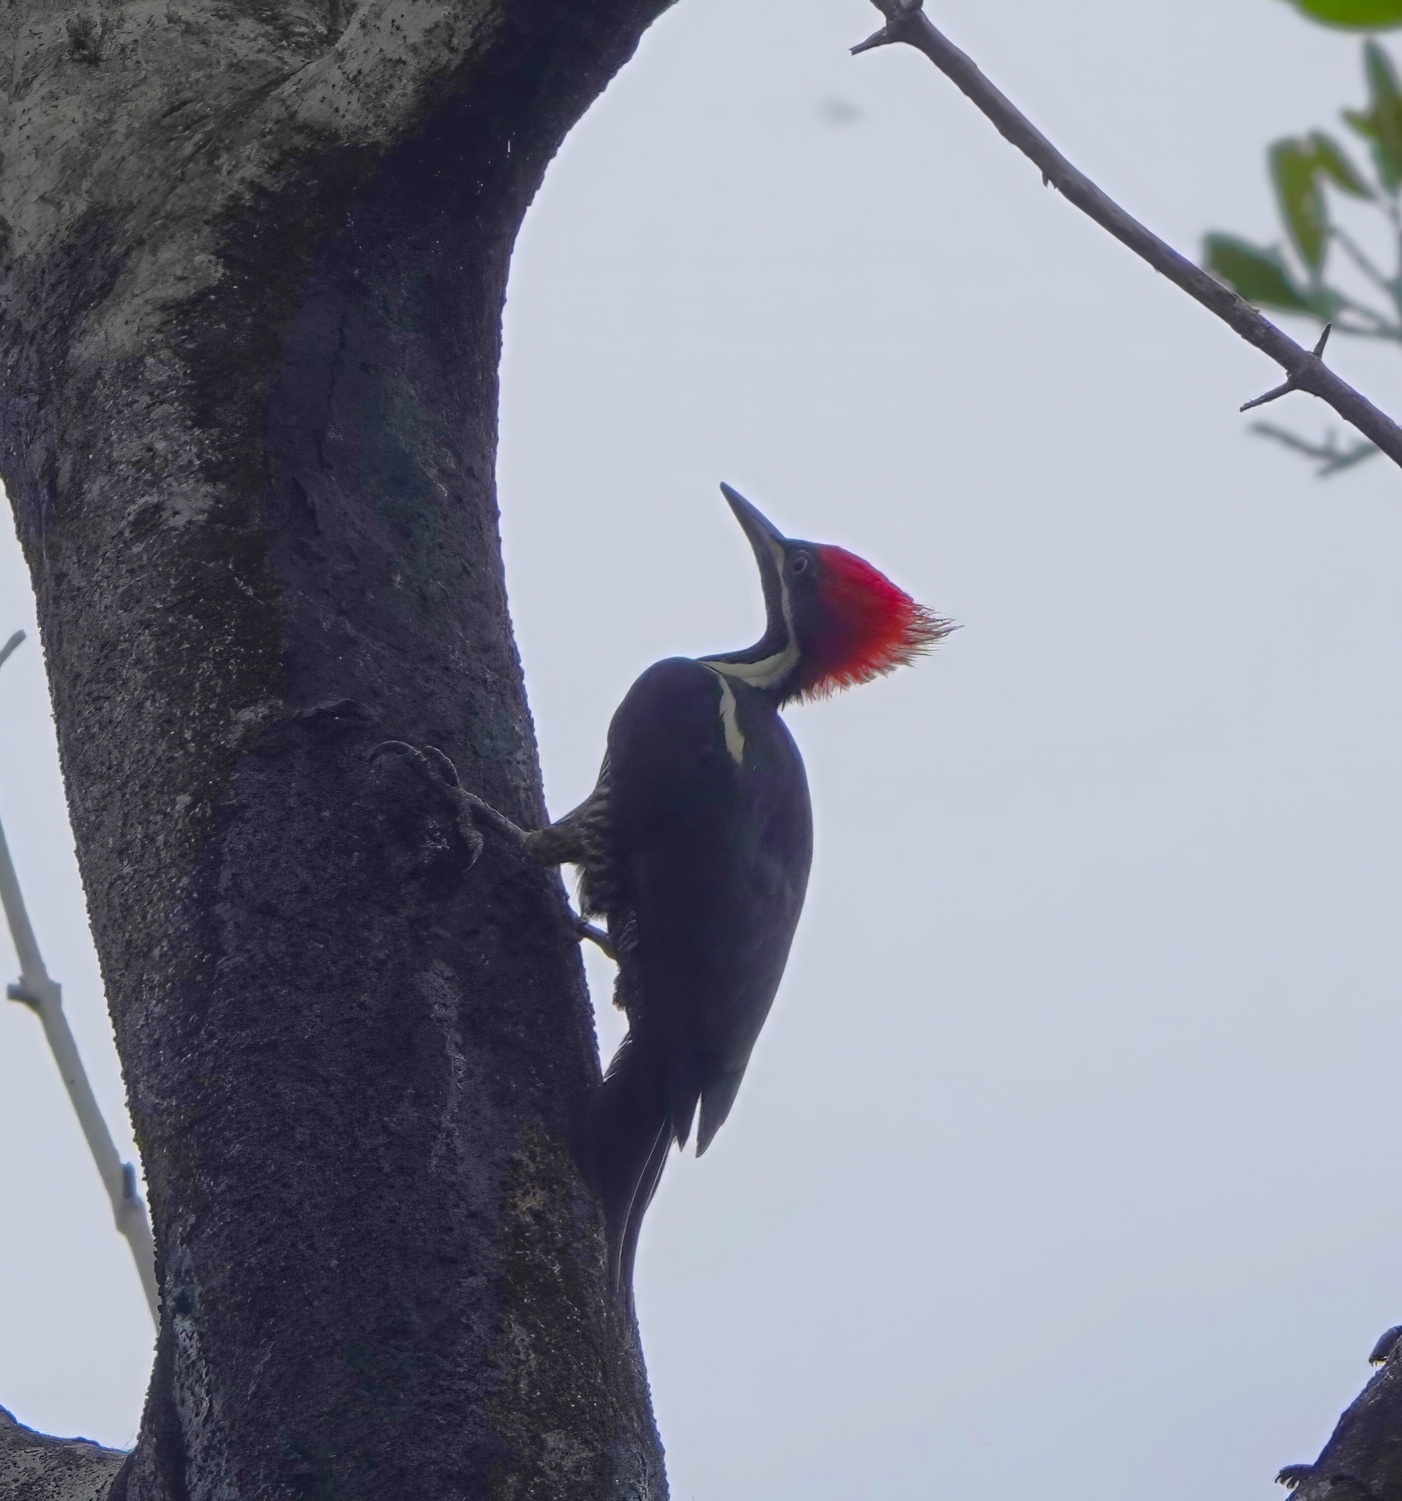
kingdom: Animalia
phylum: Chordata
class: Aves
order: Piciformes
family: Picidae
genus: Dryocopus
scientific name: Dryocopus lineatus
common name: Lineated woodpecker
